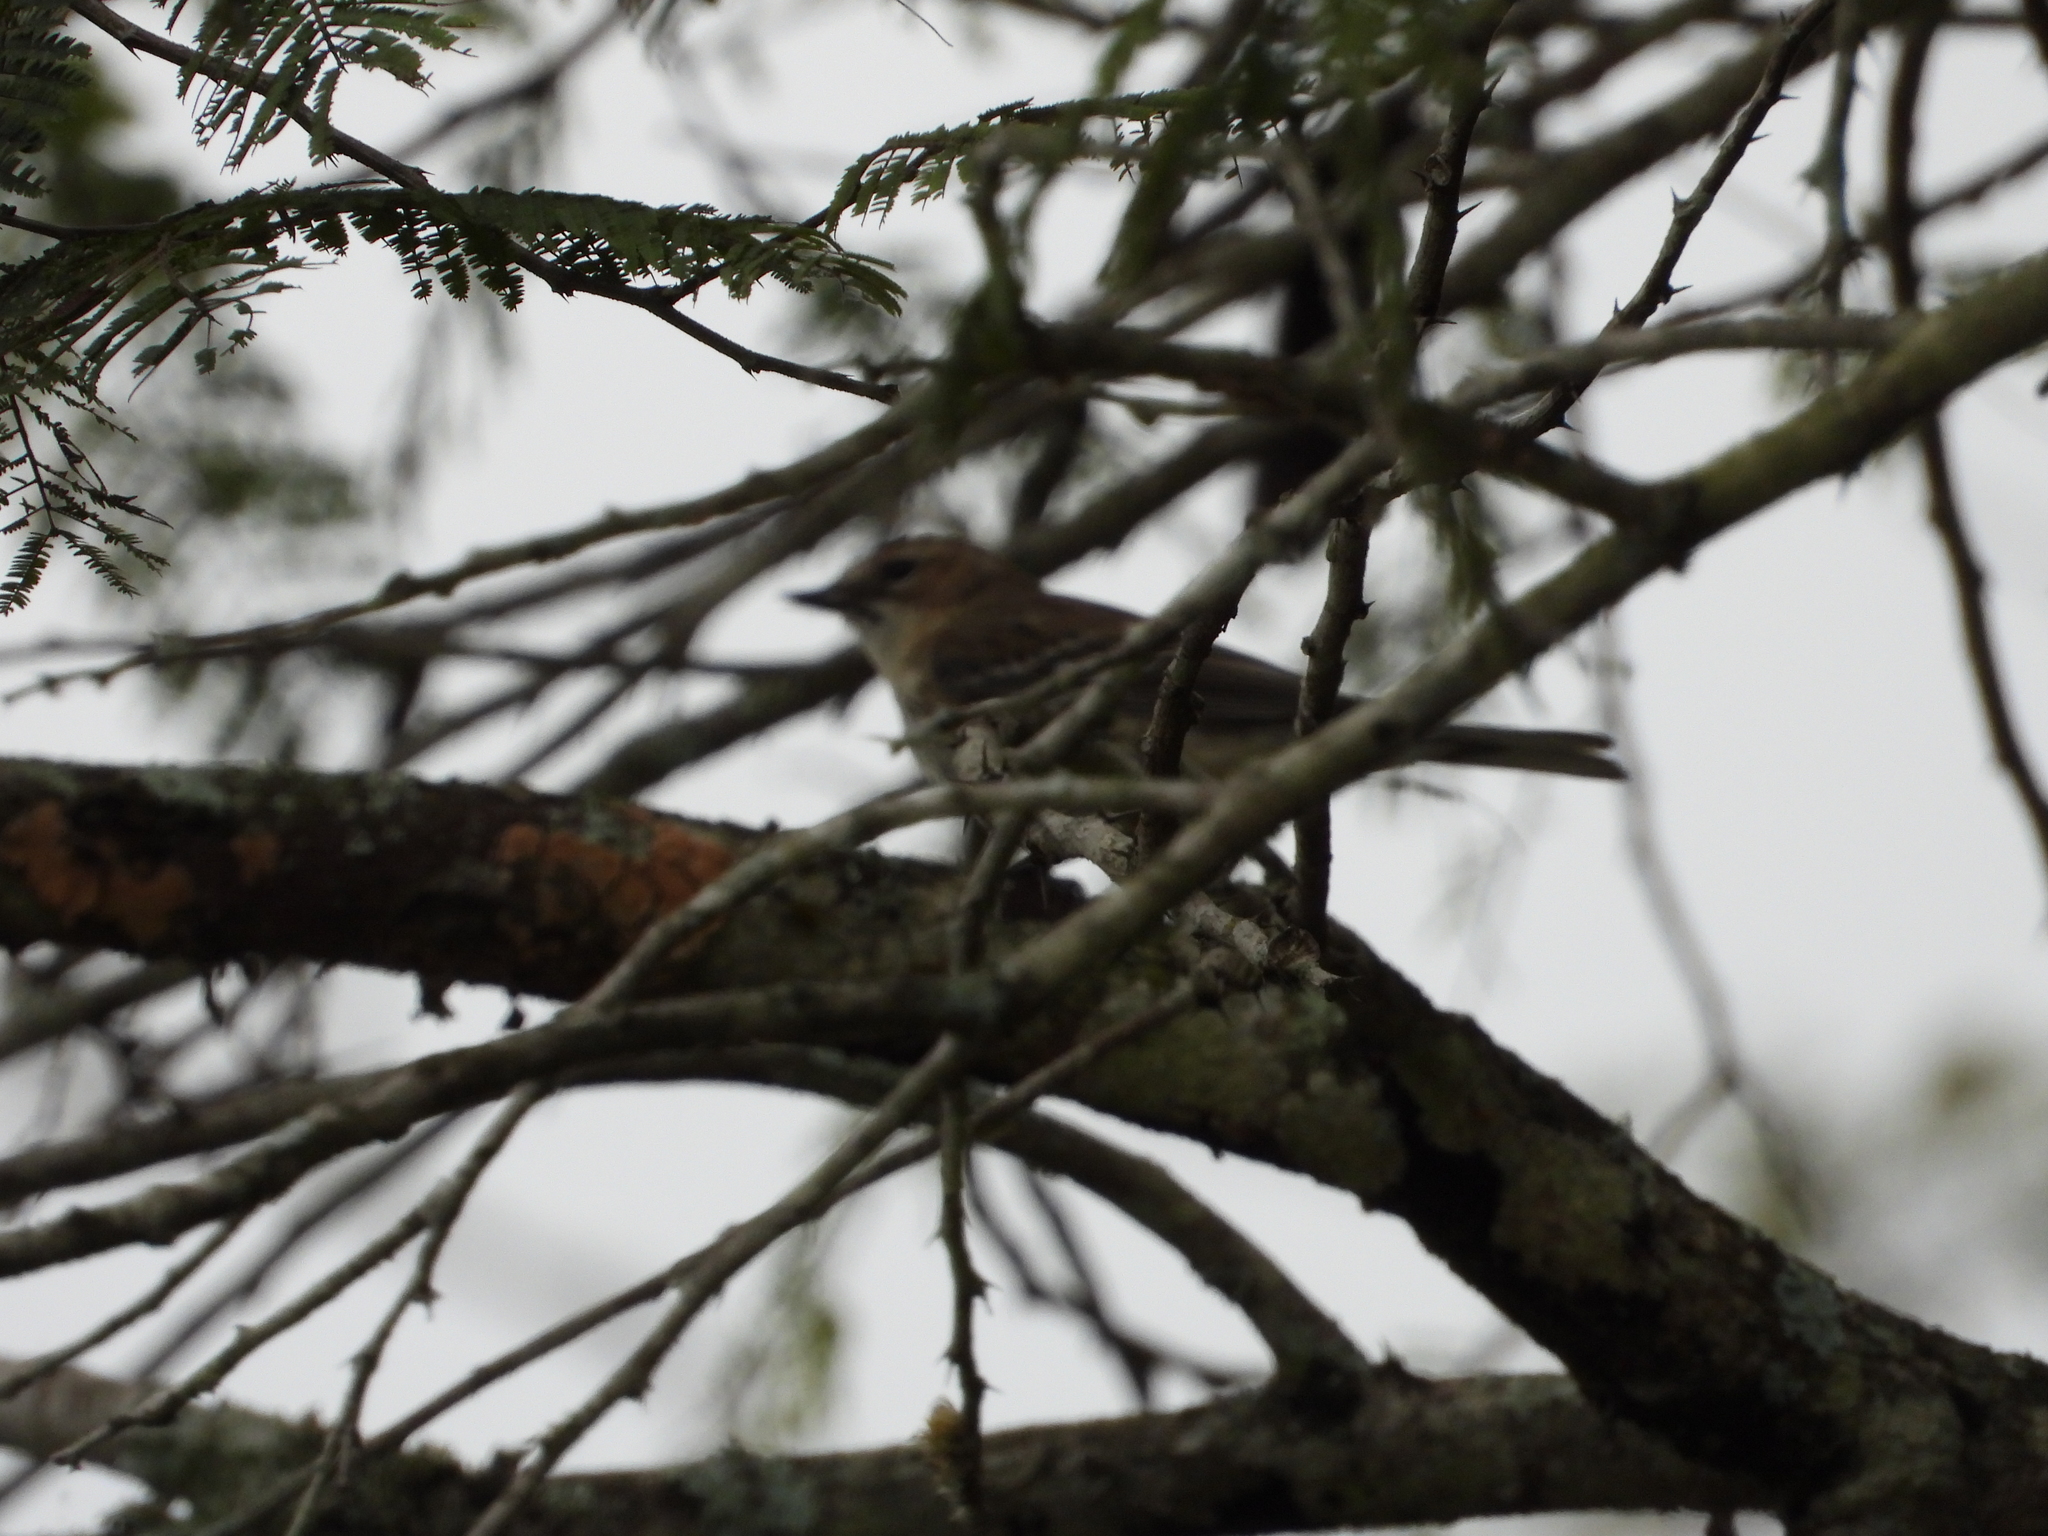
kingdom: Animalia
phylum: Chordata
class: Aves
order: Passeriformes
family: Parulidae
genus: Setophaga
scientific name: Setophaga coronata
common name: Myrtle warbler
